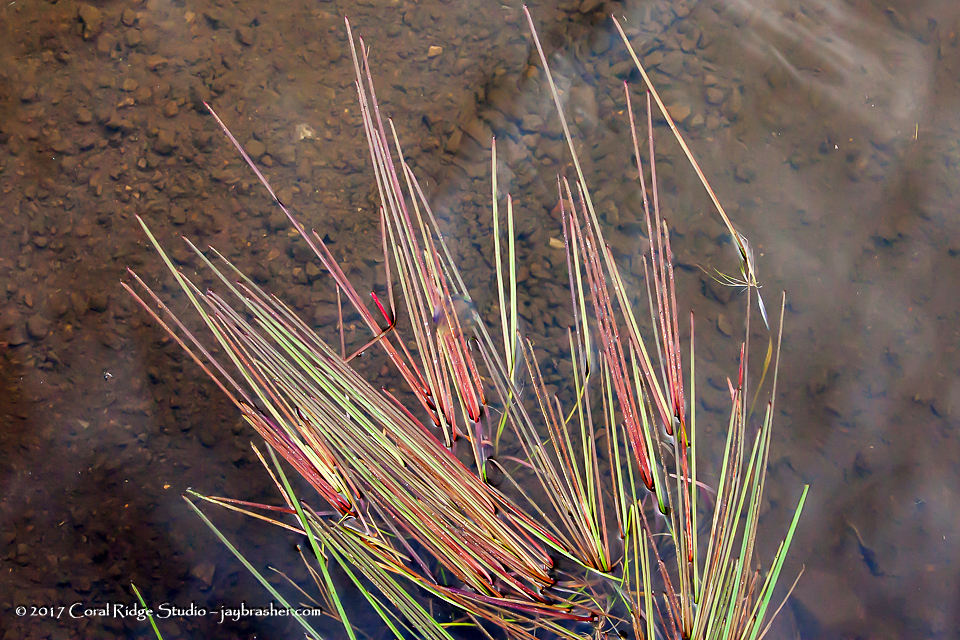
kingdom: Plantae
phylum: Tracheophyta
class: Liliopsida
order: Poales
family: Typhaceae
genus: Sparganium
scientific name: Sparganium fluctuans
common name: Floating burreed
